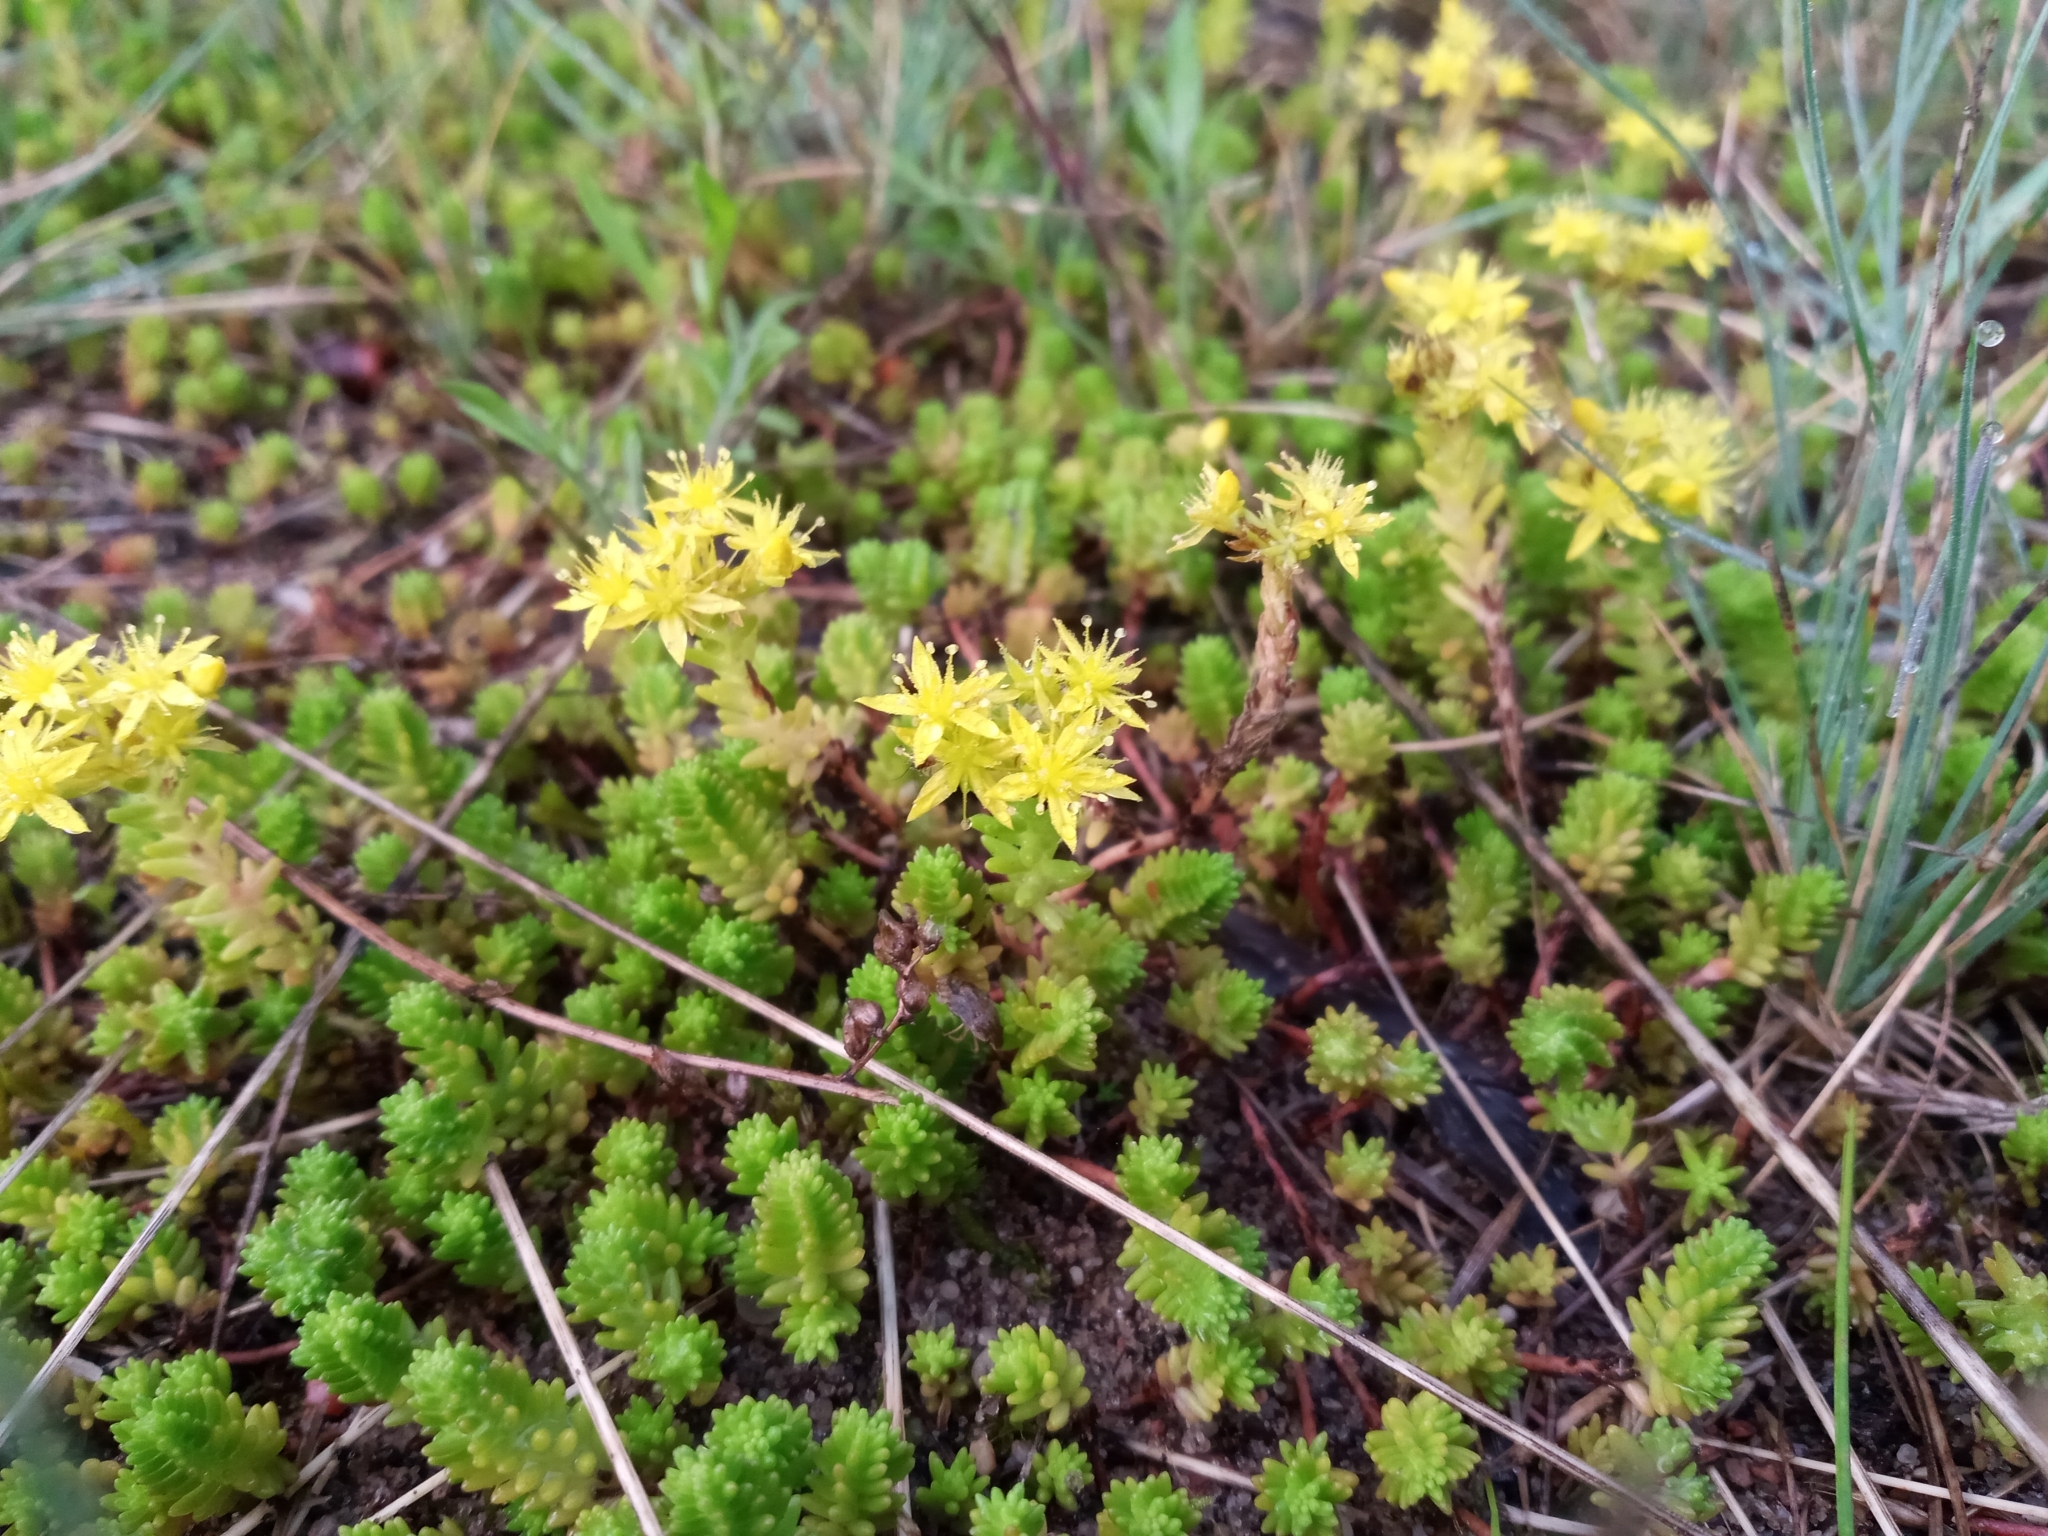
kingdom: Plantae
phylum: Tracheophyta
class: Magnoliopsida
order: Saxifragales
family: Crassulaceae
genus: Sedum
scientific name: Sedum sexangulare
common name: Tasteless stonecrop
